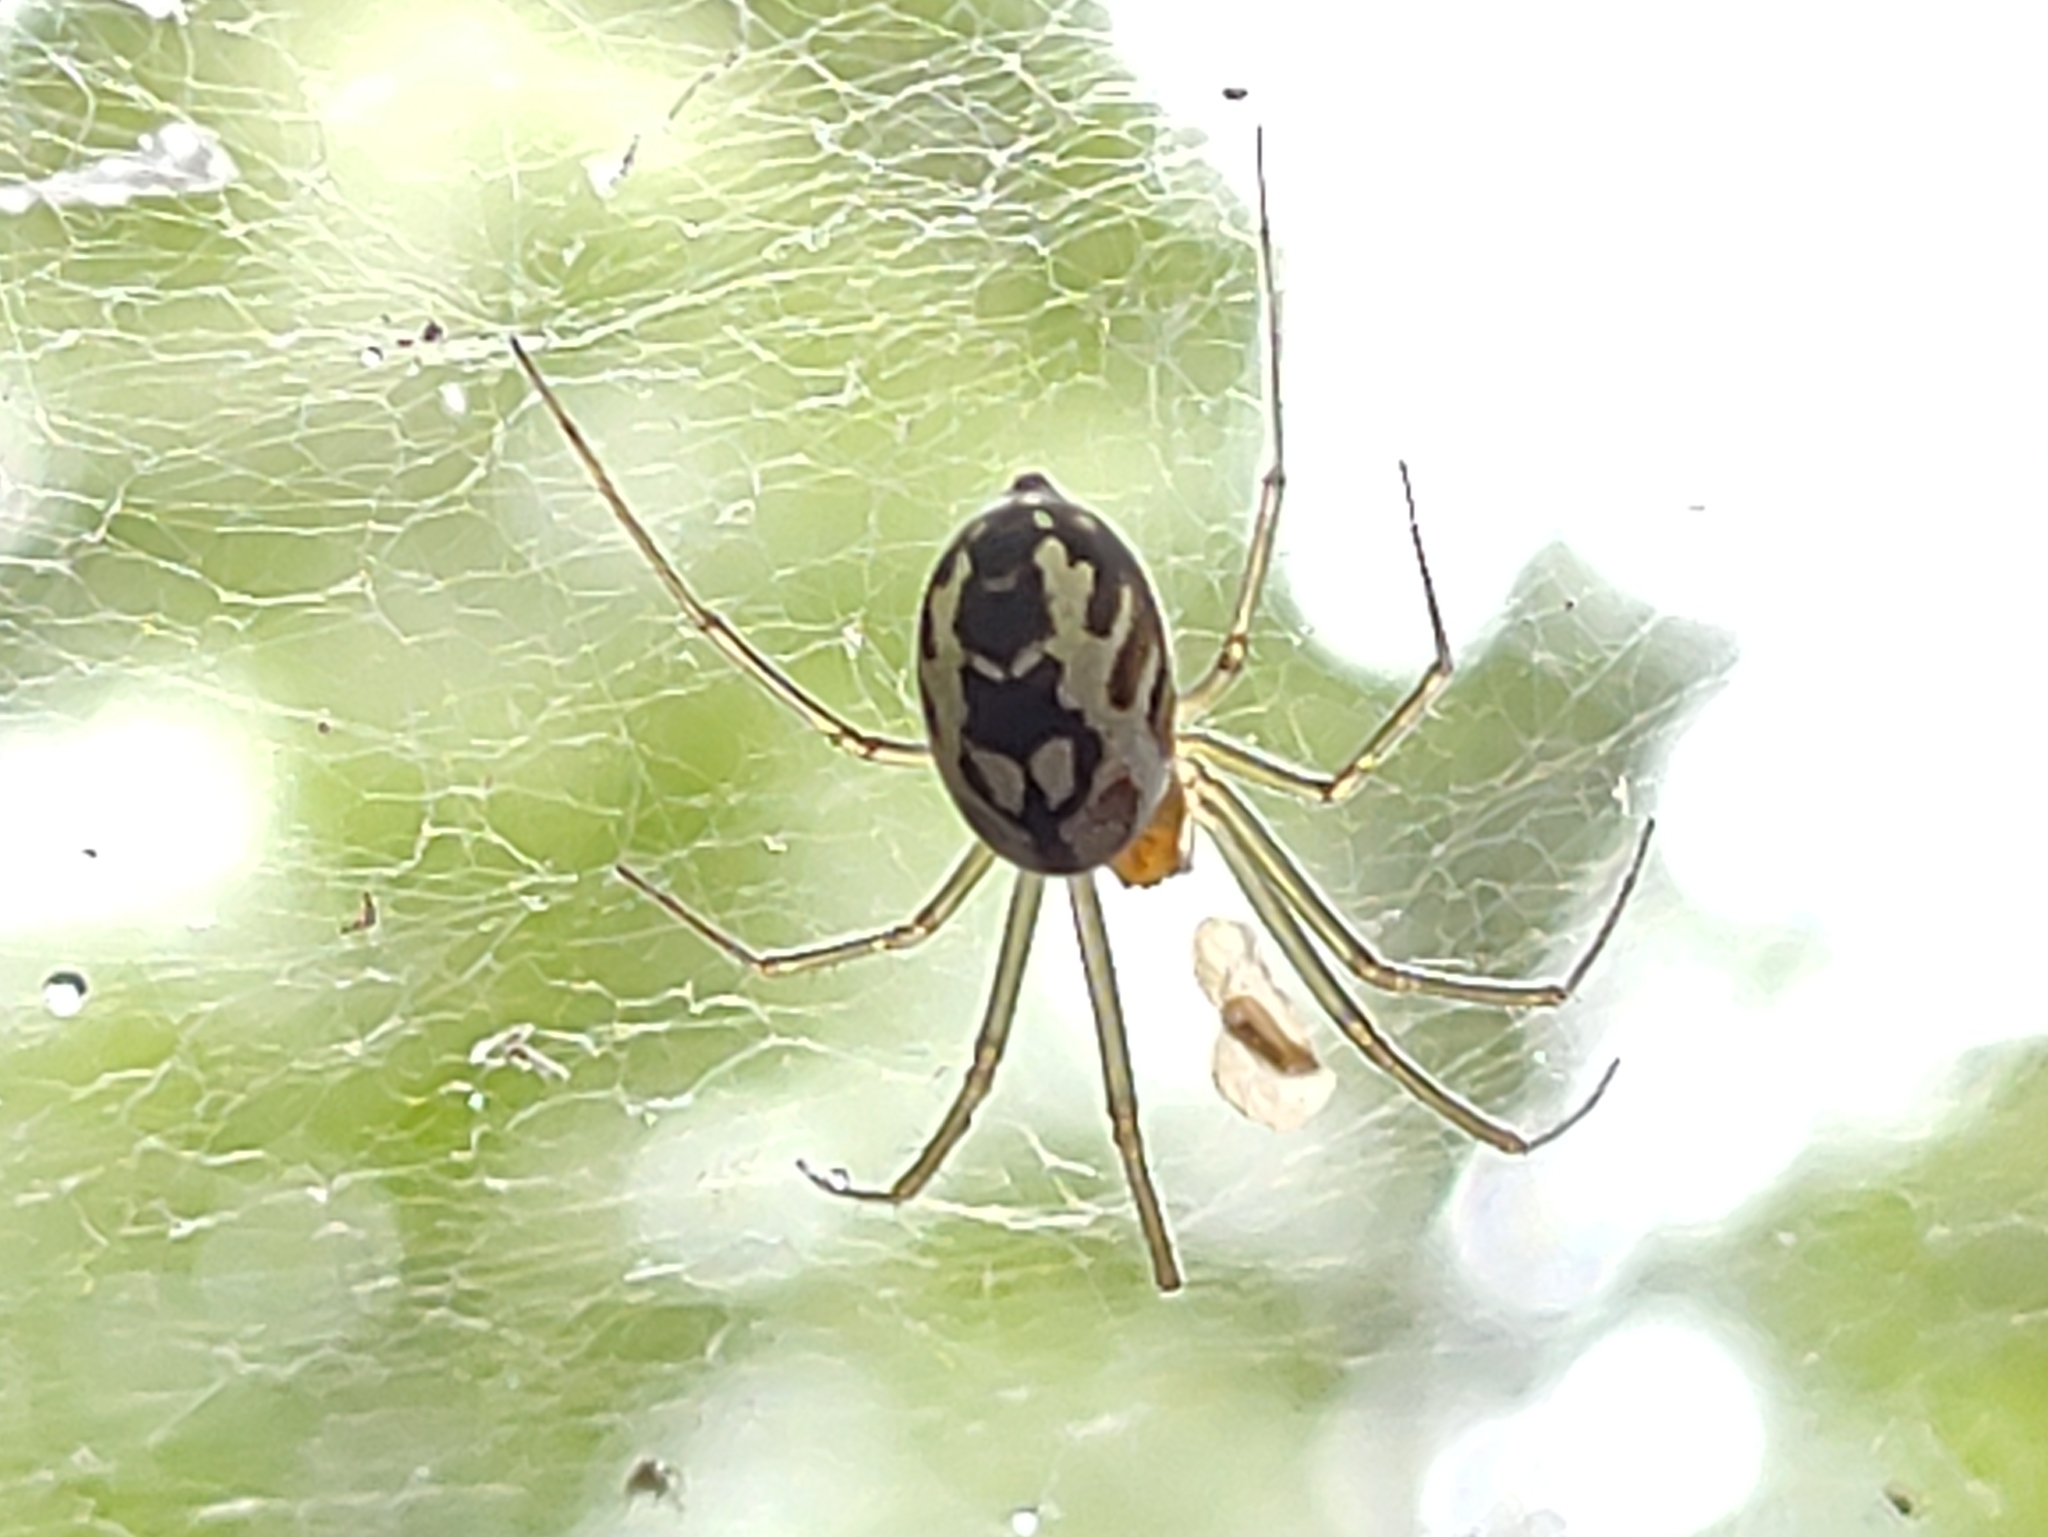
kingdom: Animalia
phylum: Arthropoda
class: Arachnida
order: Araneae
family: Linyphiidae
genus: Neriene
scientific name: Neriene emphana
